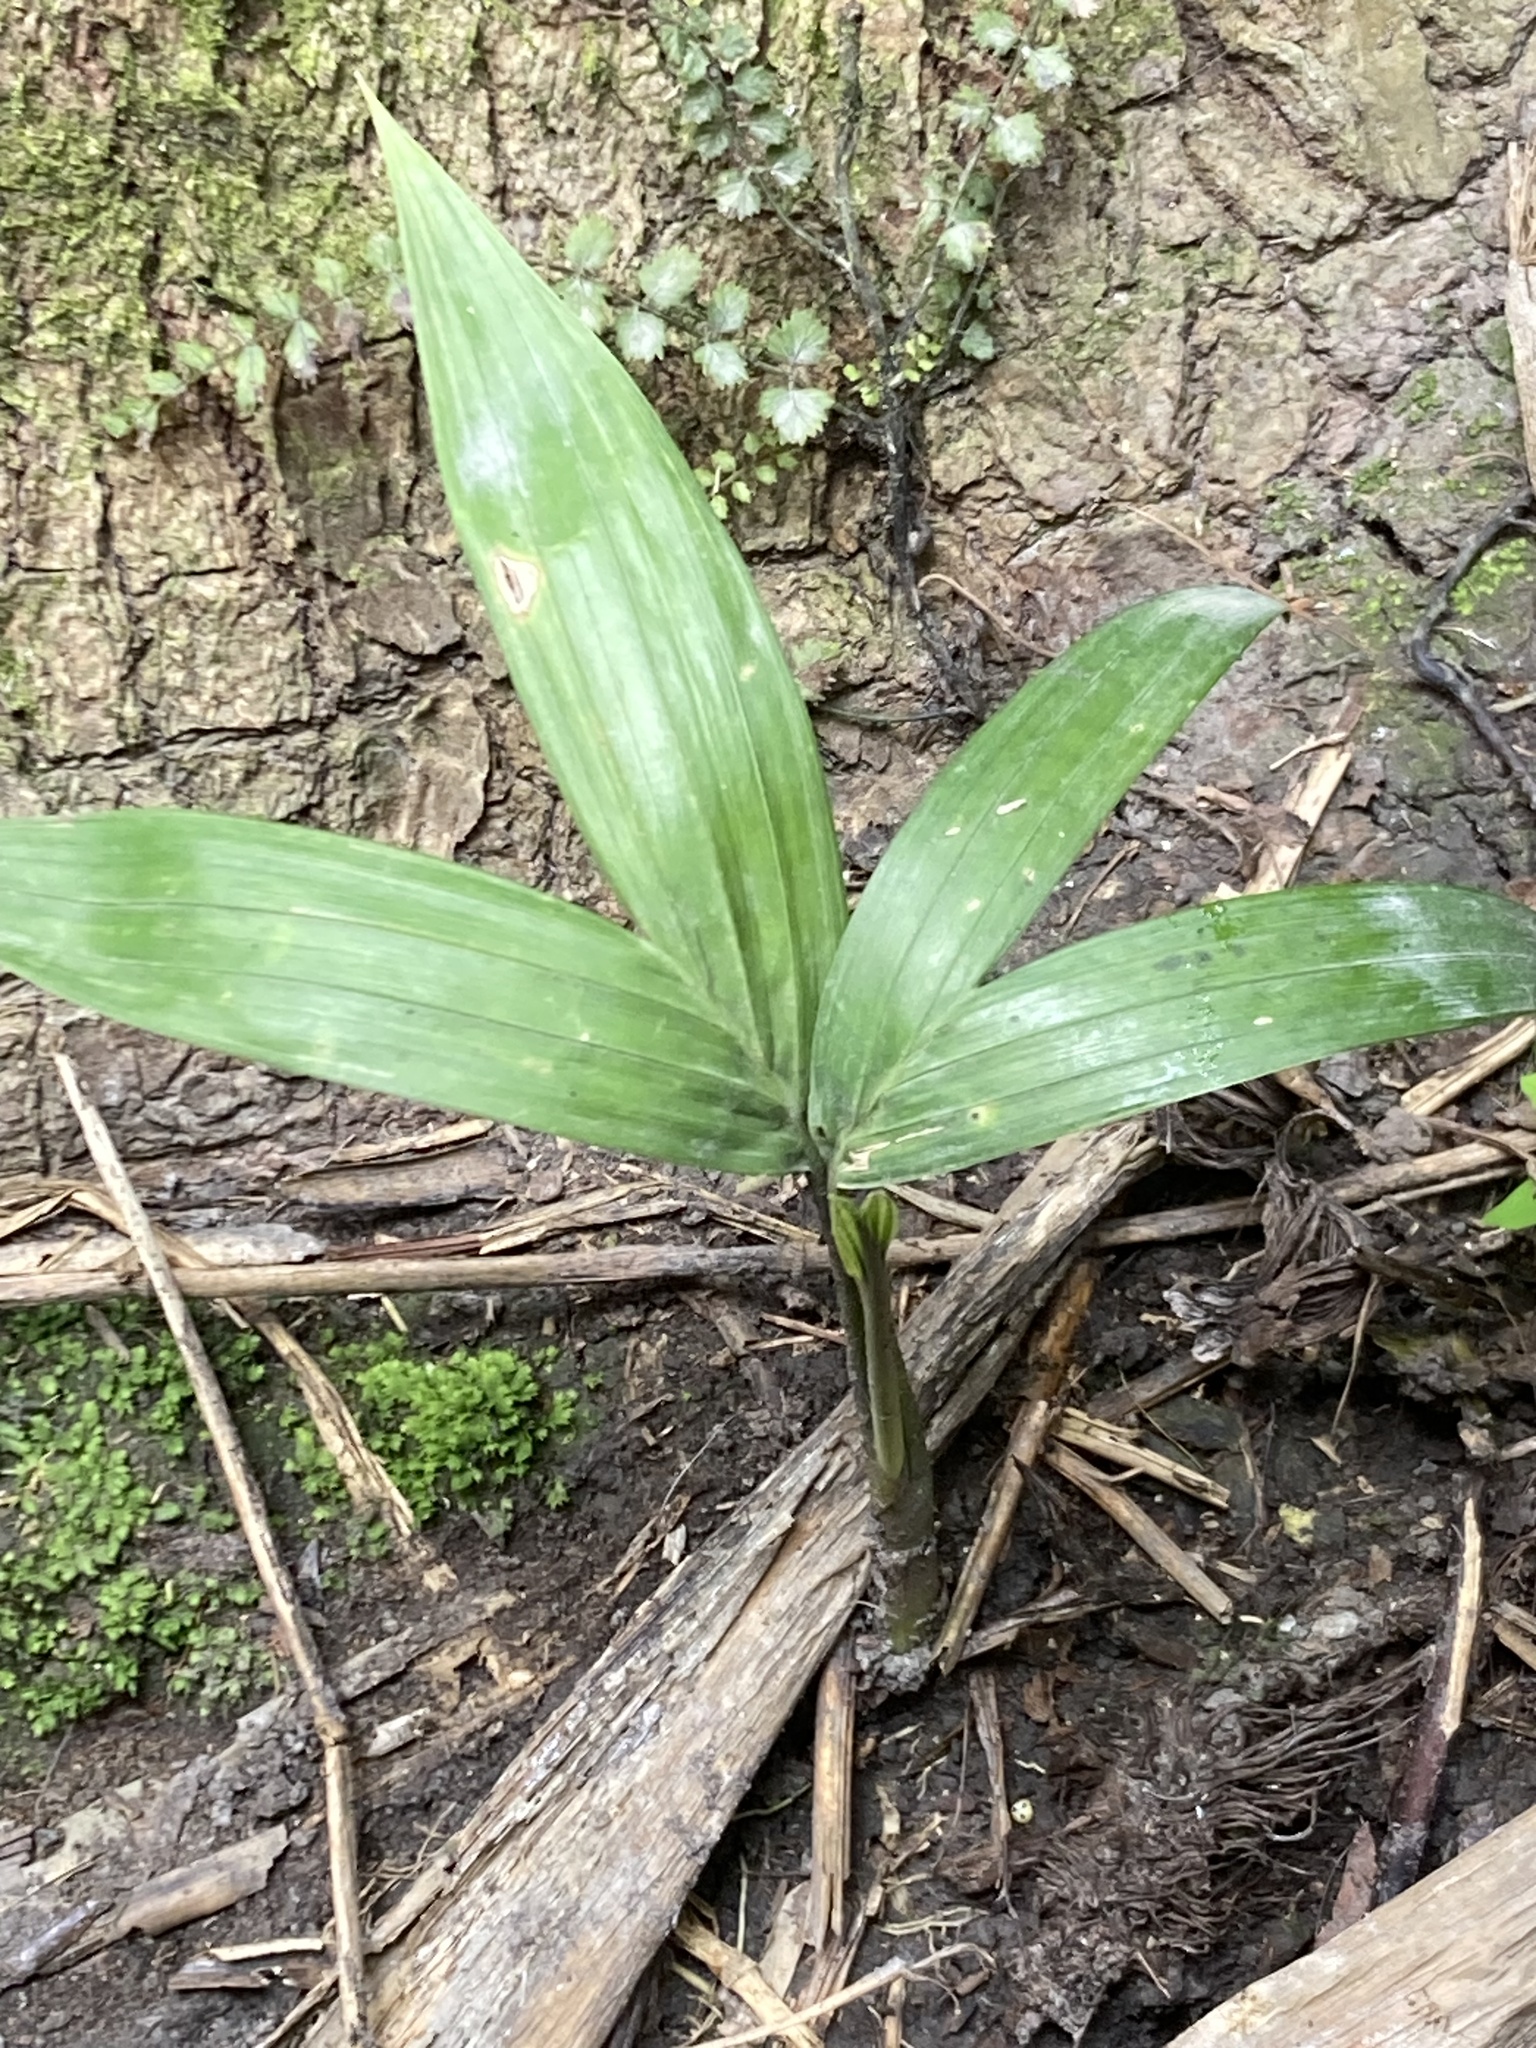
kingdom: Plantae
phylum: Tracheophyta
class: Liliopsida
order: Arecales
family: Arecaceae
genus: Archontophoenix
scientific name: Archontophoenix cunninghamiana
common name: Piccabeen bangalow palm
